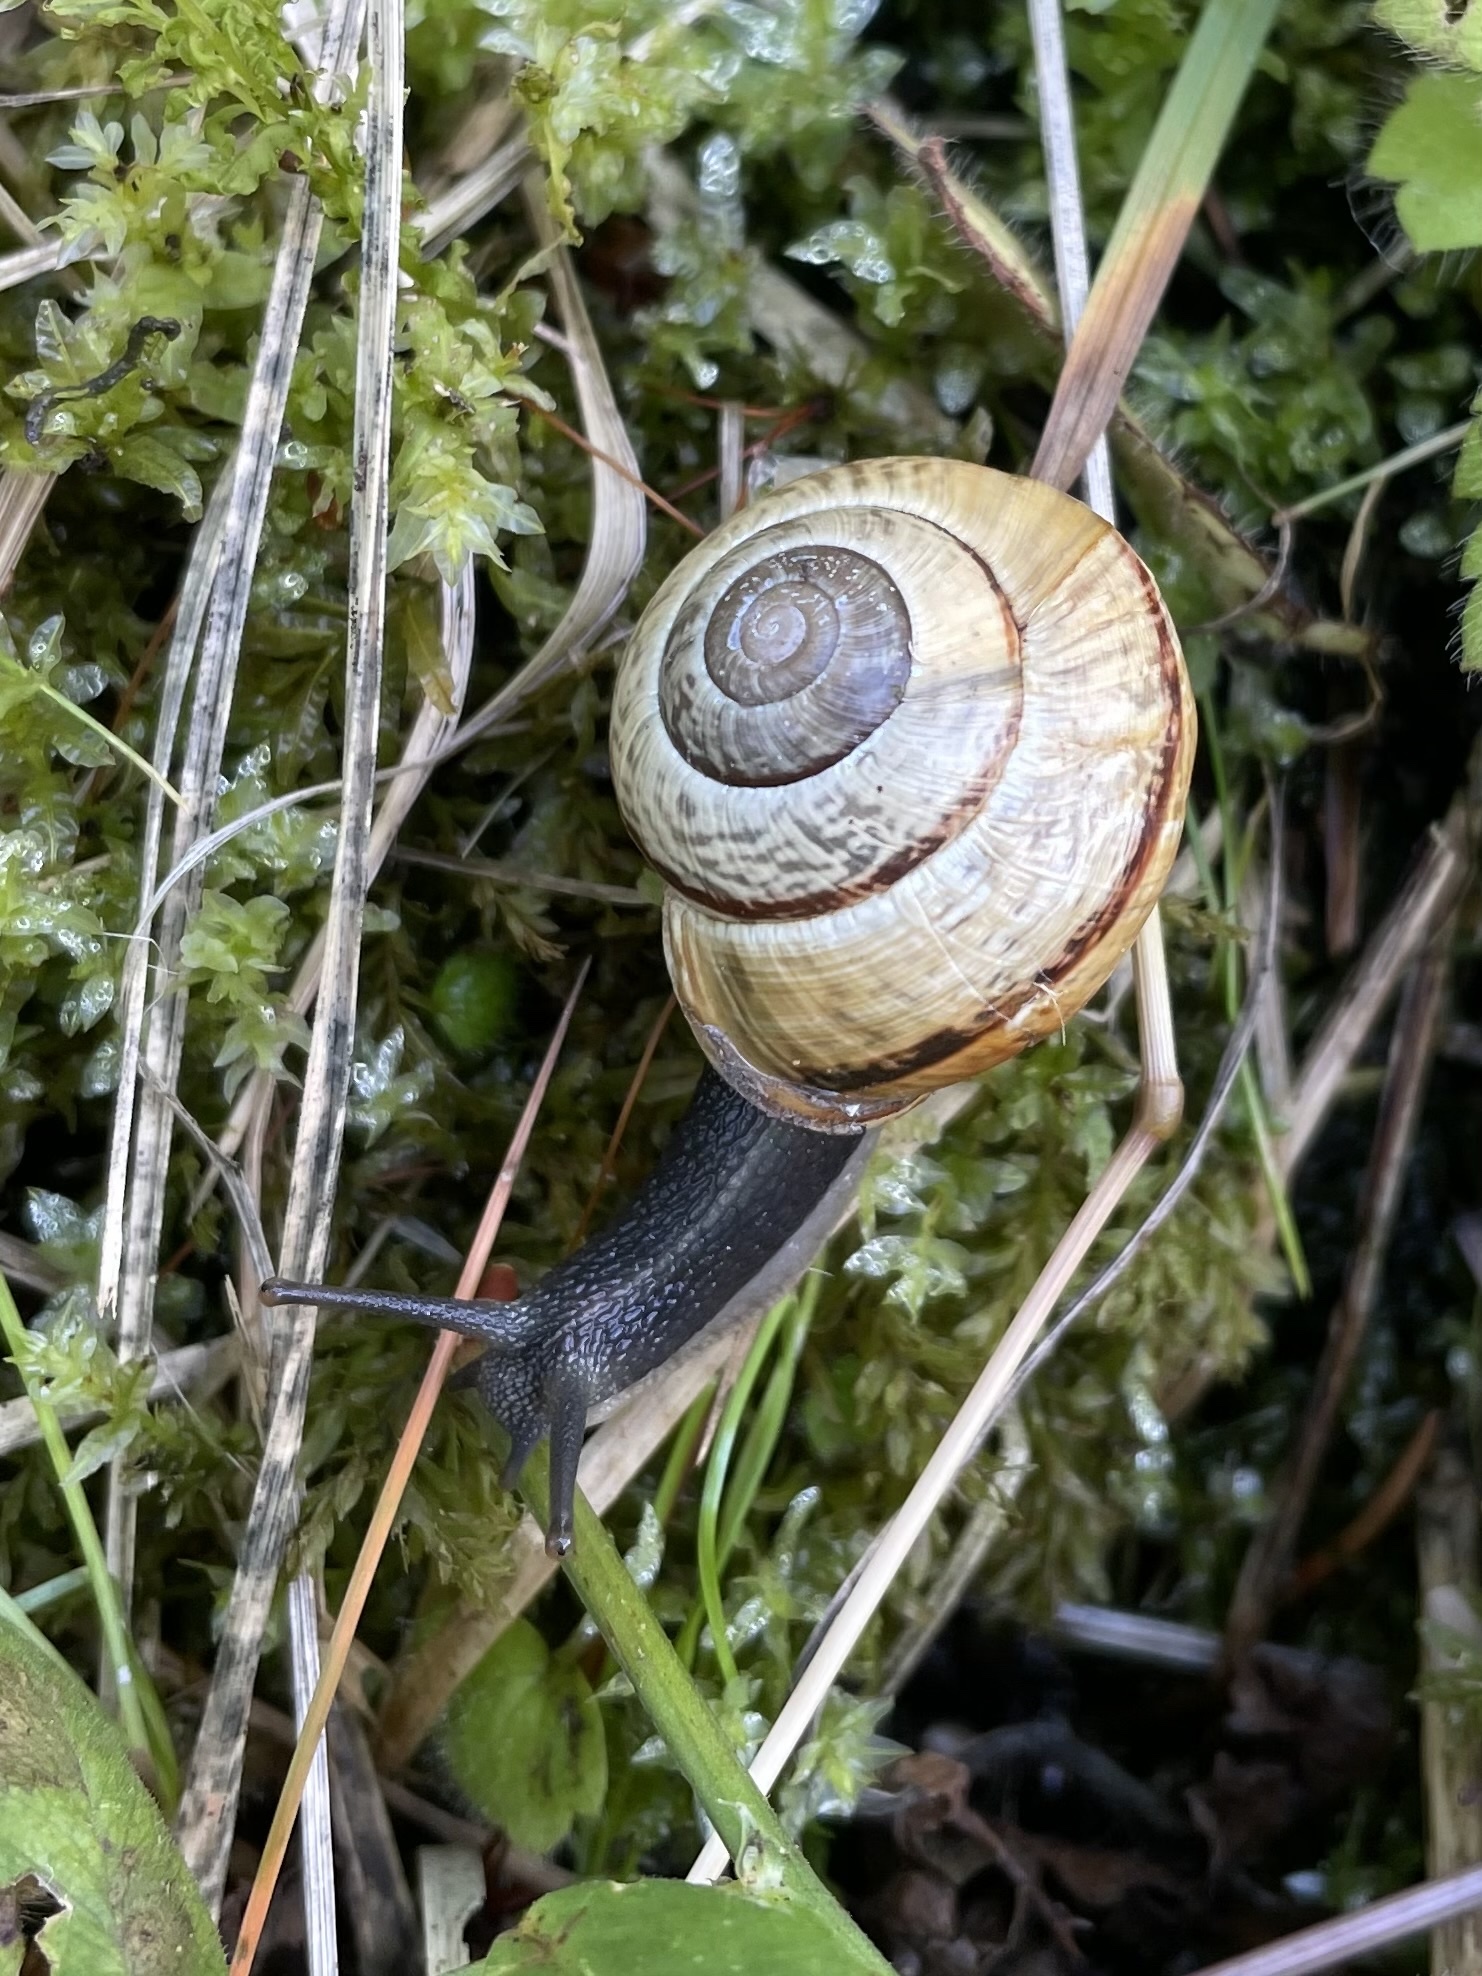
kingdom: Animalia
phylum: Mollusca
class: Gastropoda
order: Stylommatophora
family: Helicidae
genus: Arianta
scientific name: Arianta arbustorum
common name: Copse snail
